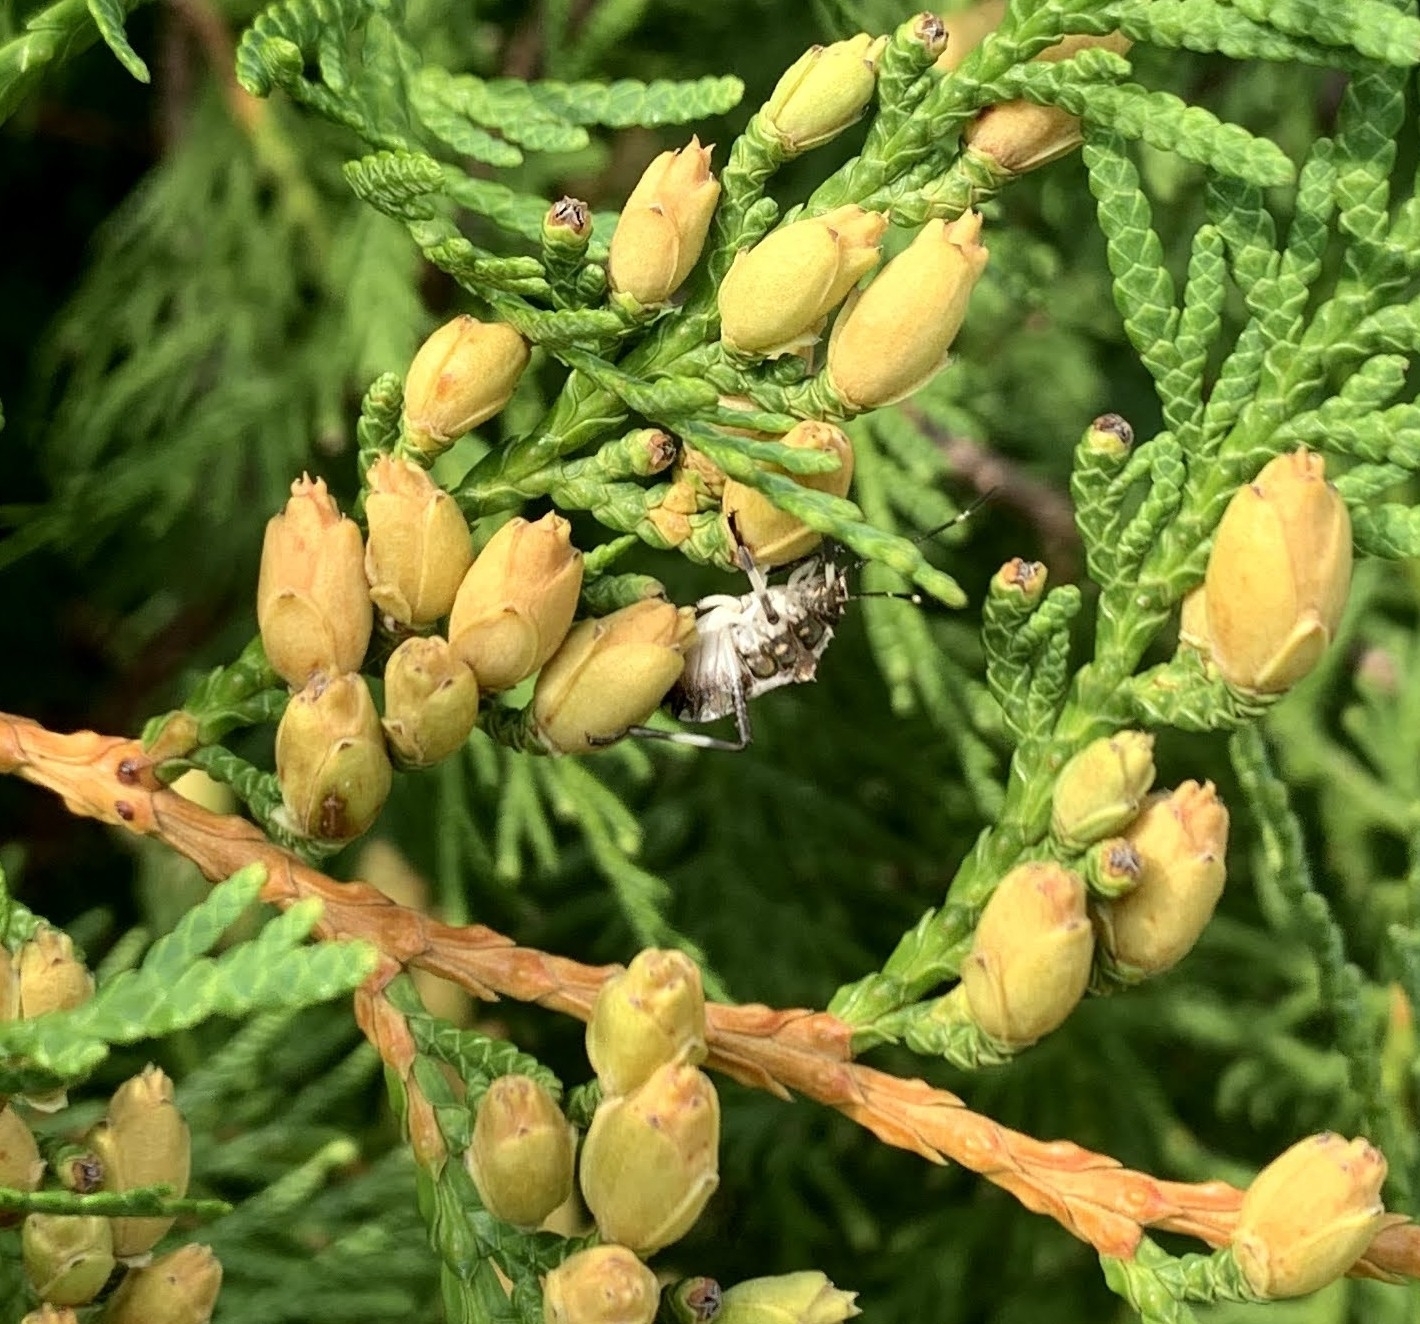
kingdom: Animalia
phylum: Arthropoda
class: Insecta
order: Hemiptera
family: Pentatomidae
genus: Halyomorpha
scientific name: Halyomorpha halys
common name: Brown marmorated stink bug
